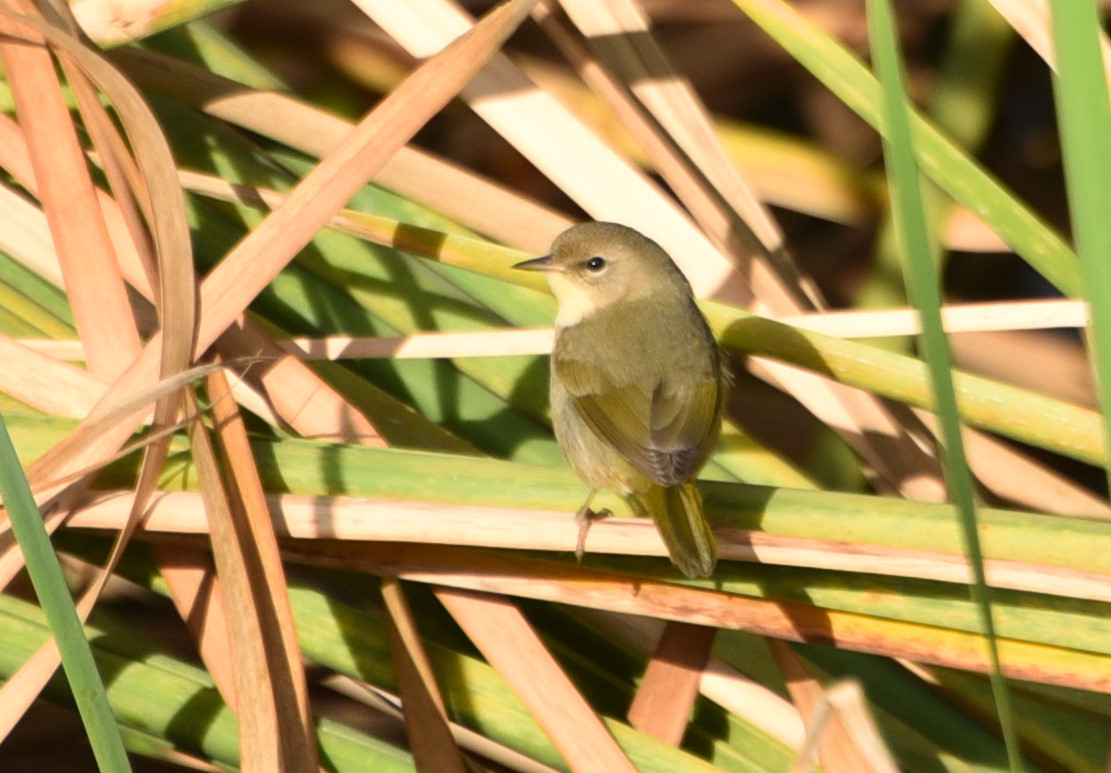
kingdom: Animalia
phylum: Chordata
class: Aves
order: Passeriformes
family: Parulidae
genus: Geothlypis
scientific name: Geothlypis trichas
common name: Common yellowthroat
